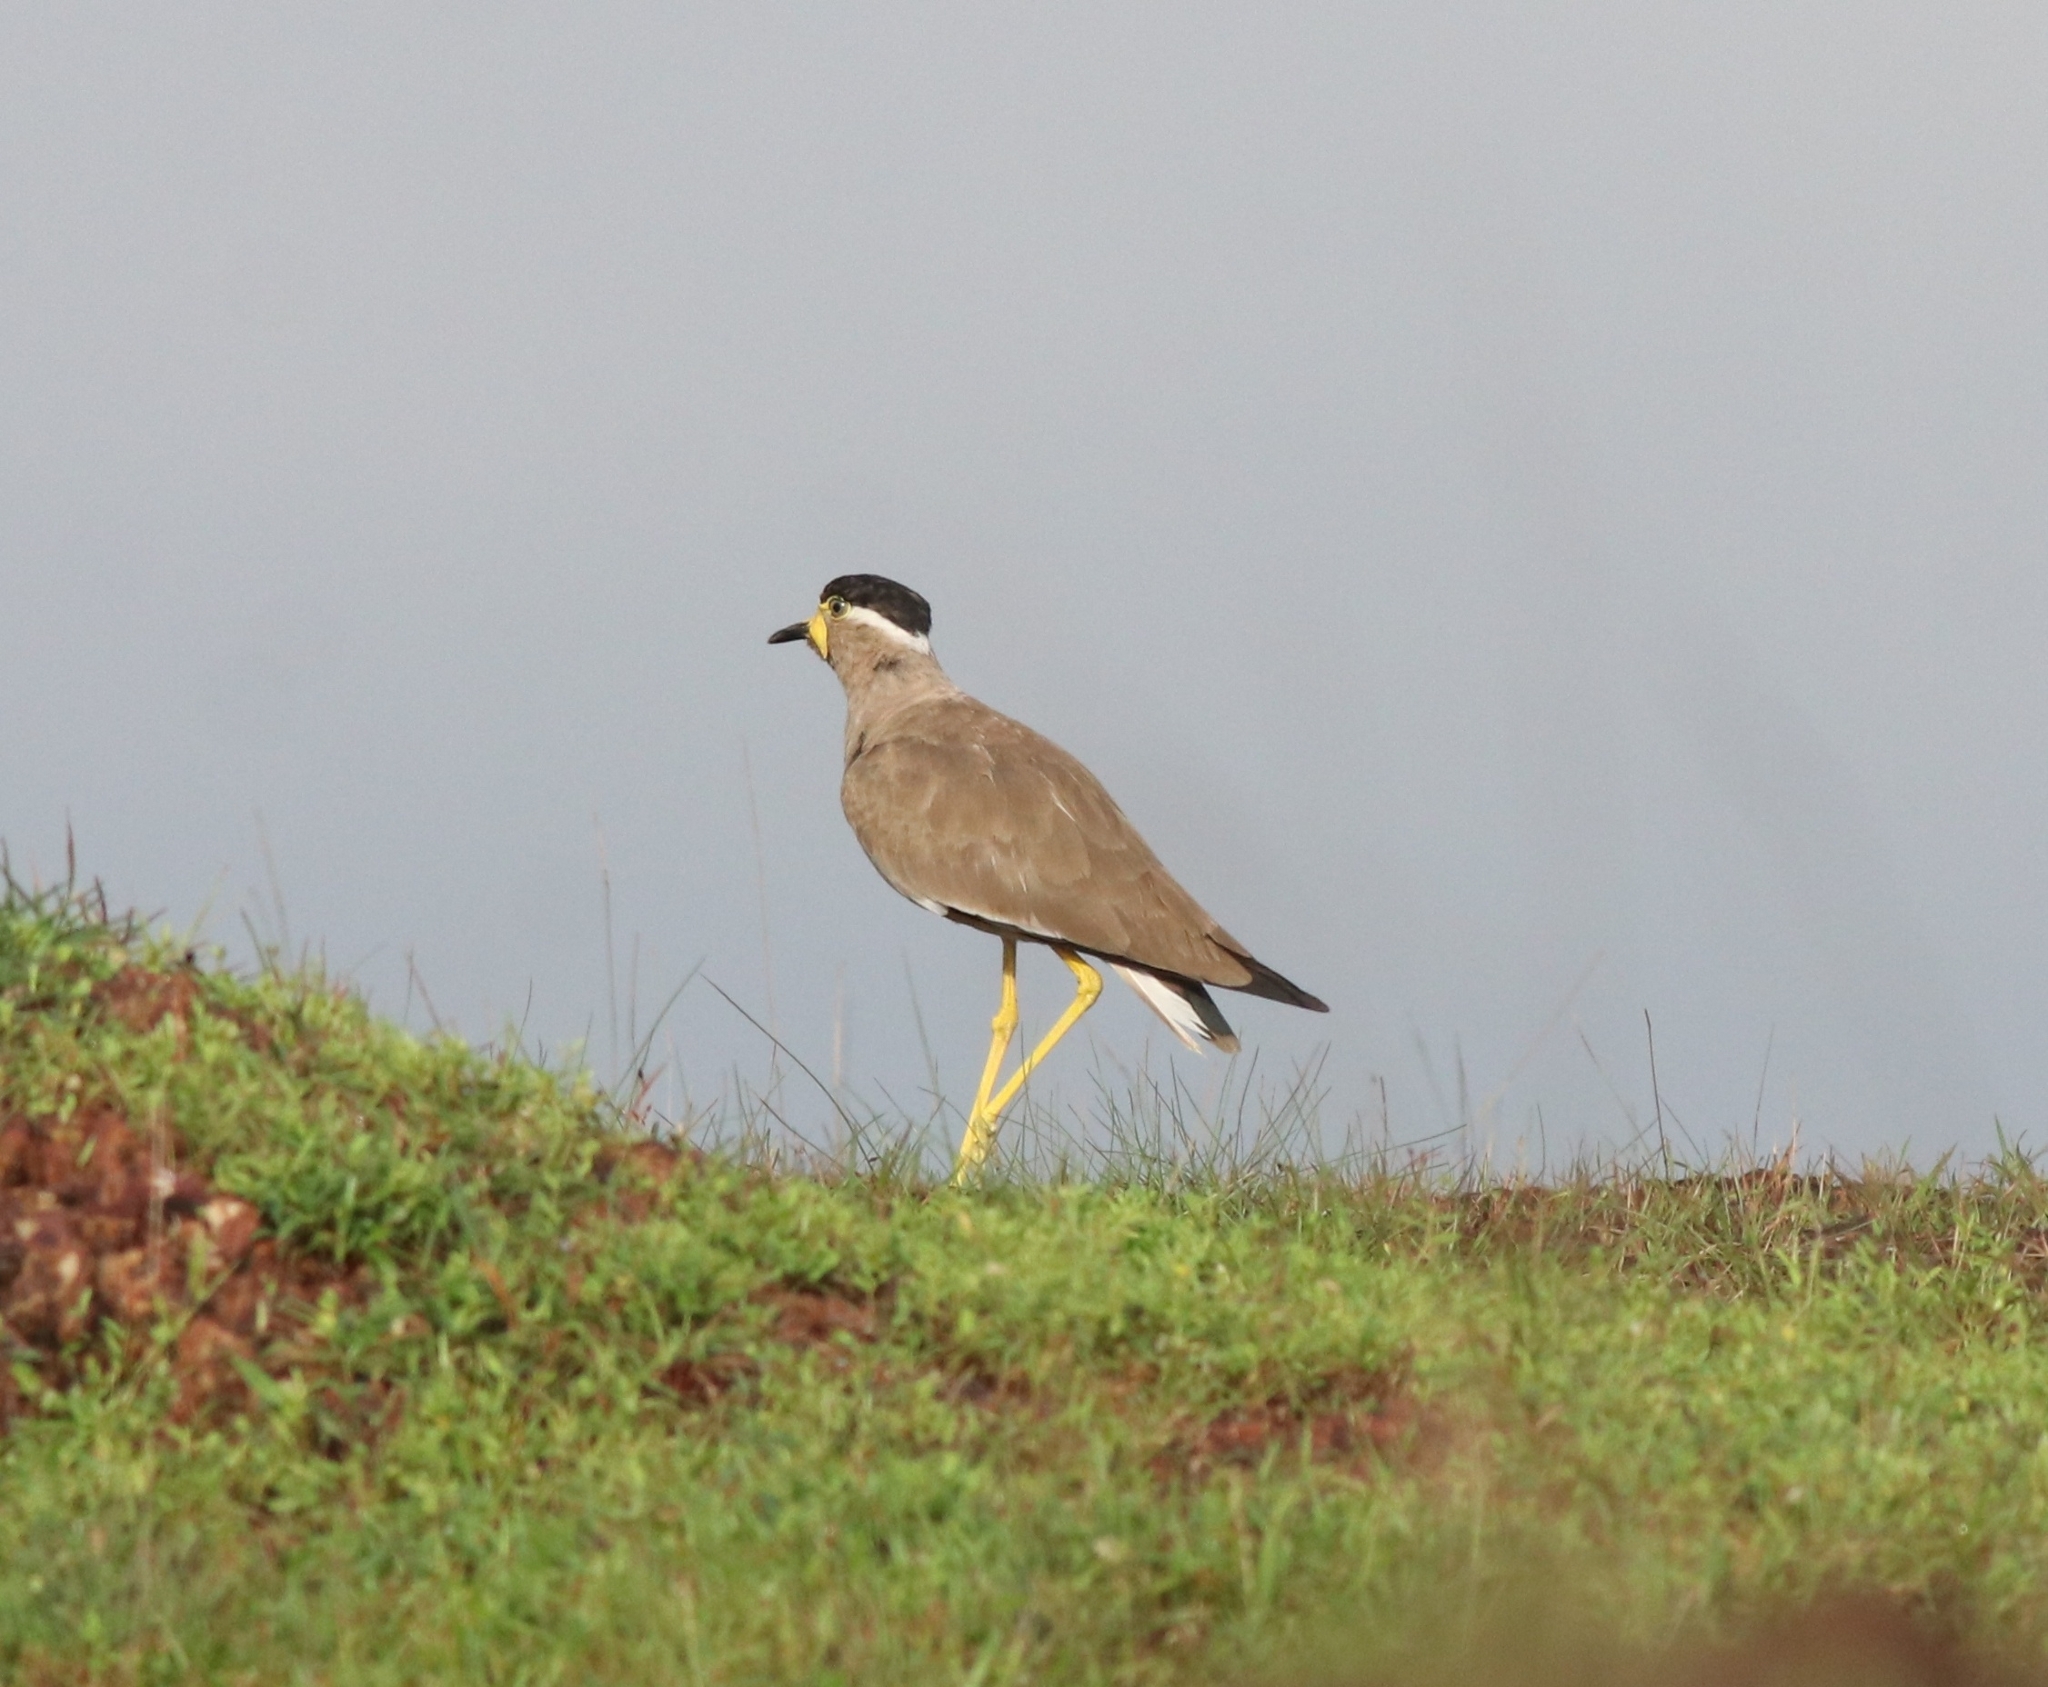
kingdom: Animalia
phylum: Chordata
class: Aves
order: Charadriiformes
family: Charadriidae
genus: Vanellus
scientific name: Vanellus malabaricus
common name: Yellow-wattled lapwing
